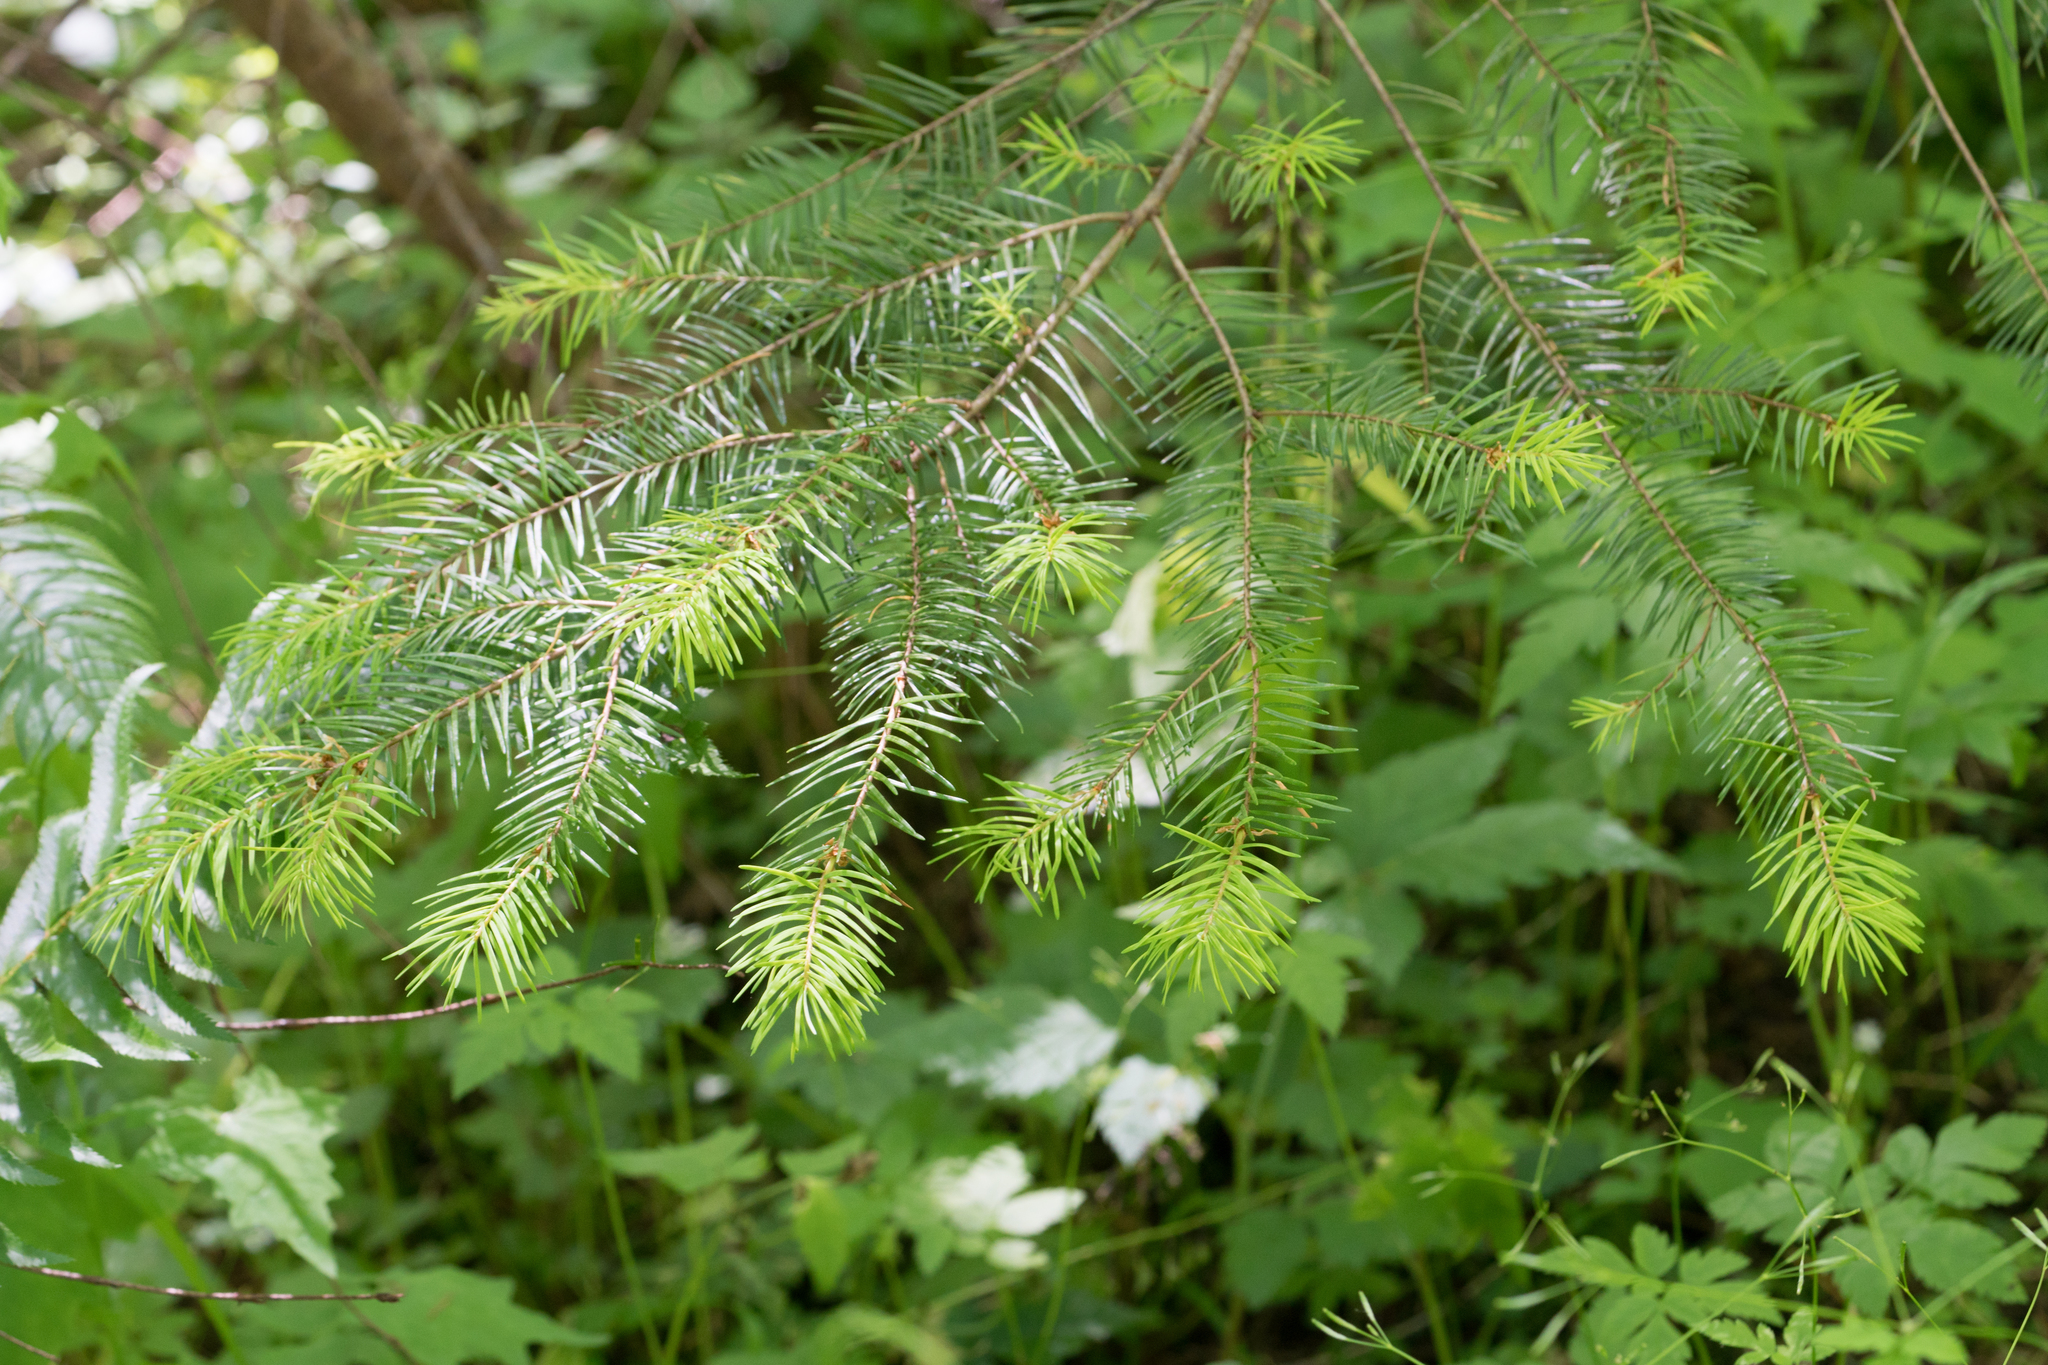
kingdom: Plantae
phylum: Tracheophyta
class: Pinopsida
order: Pinales
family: Pinaceae
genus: Pseudotsuga
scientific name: Pseudotsuga menziesii
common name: Douglas fir
